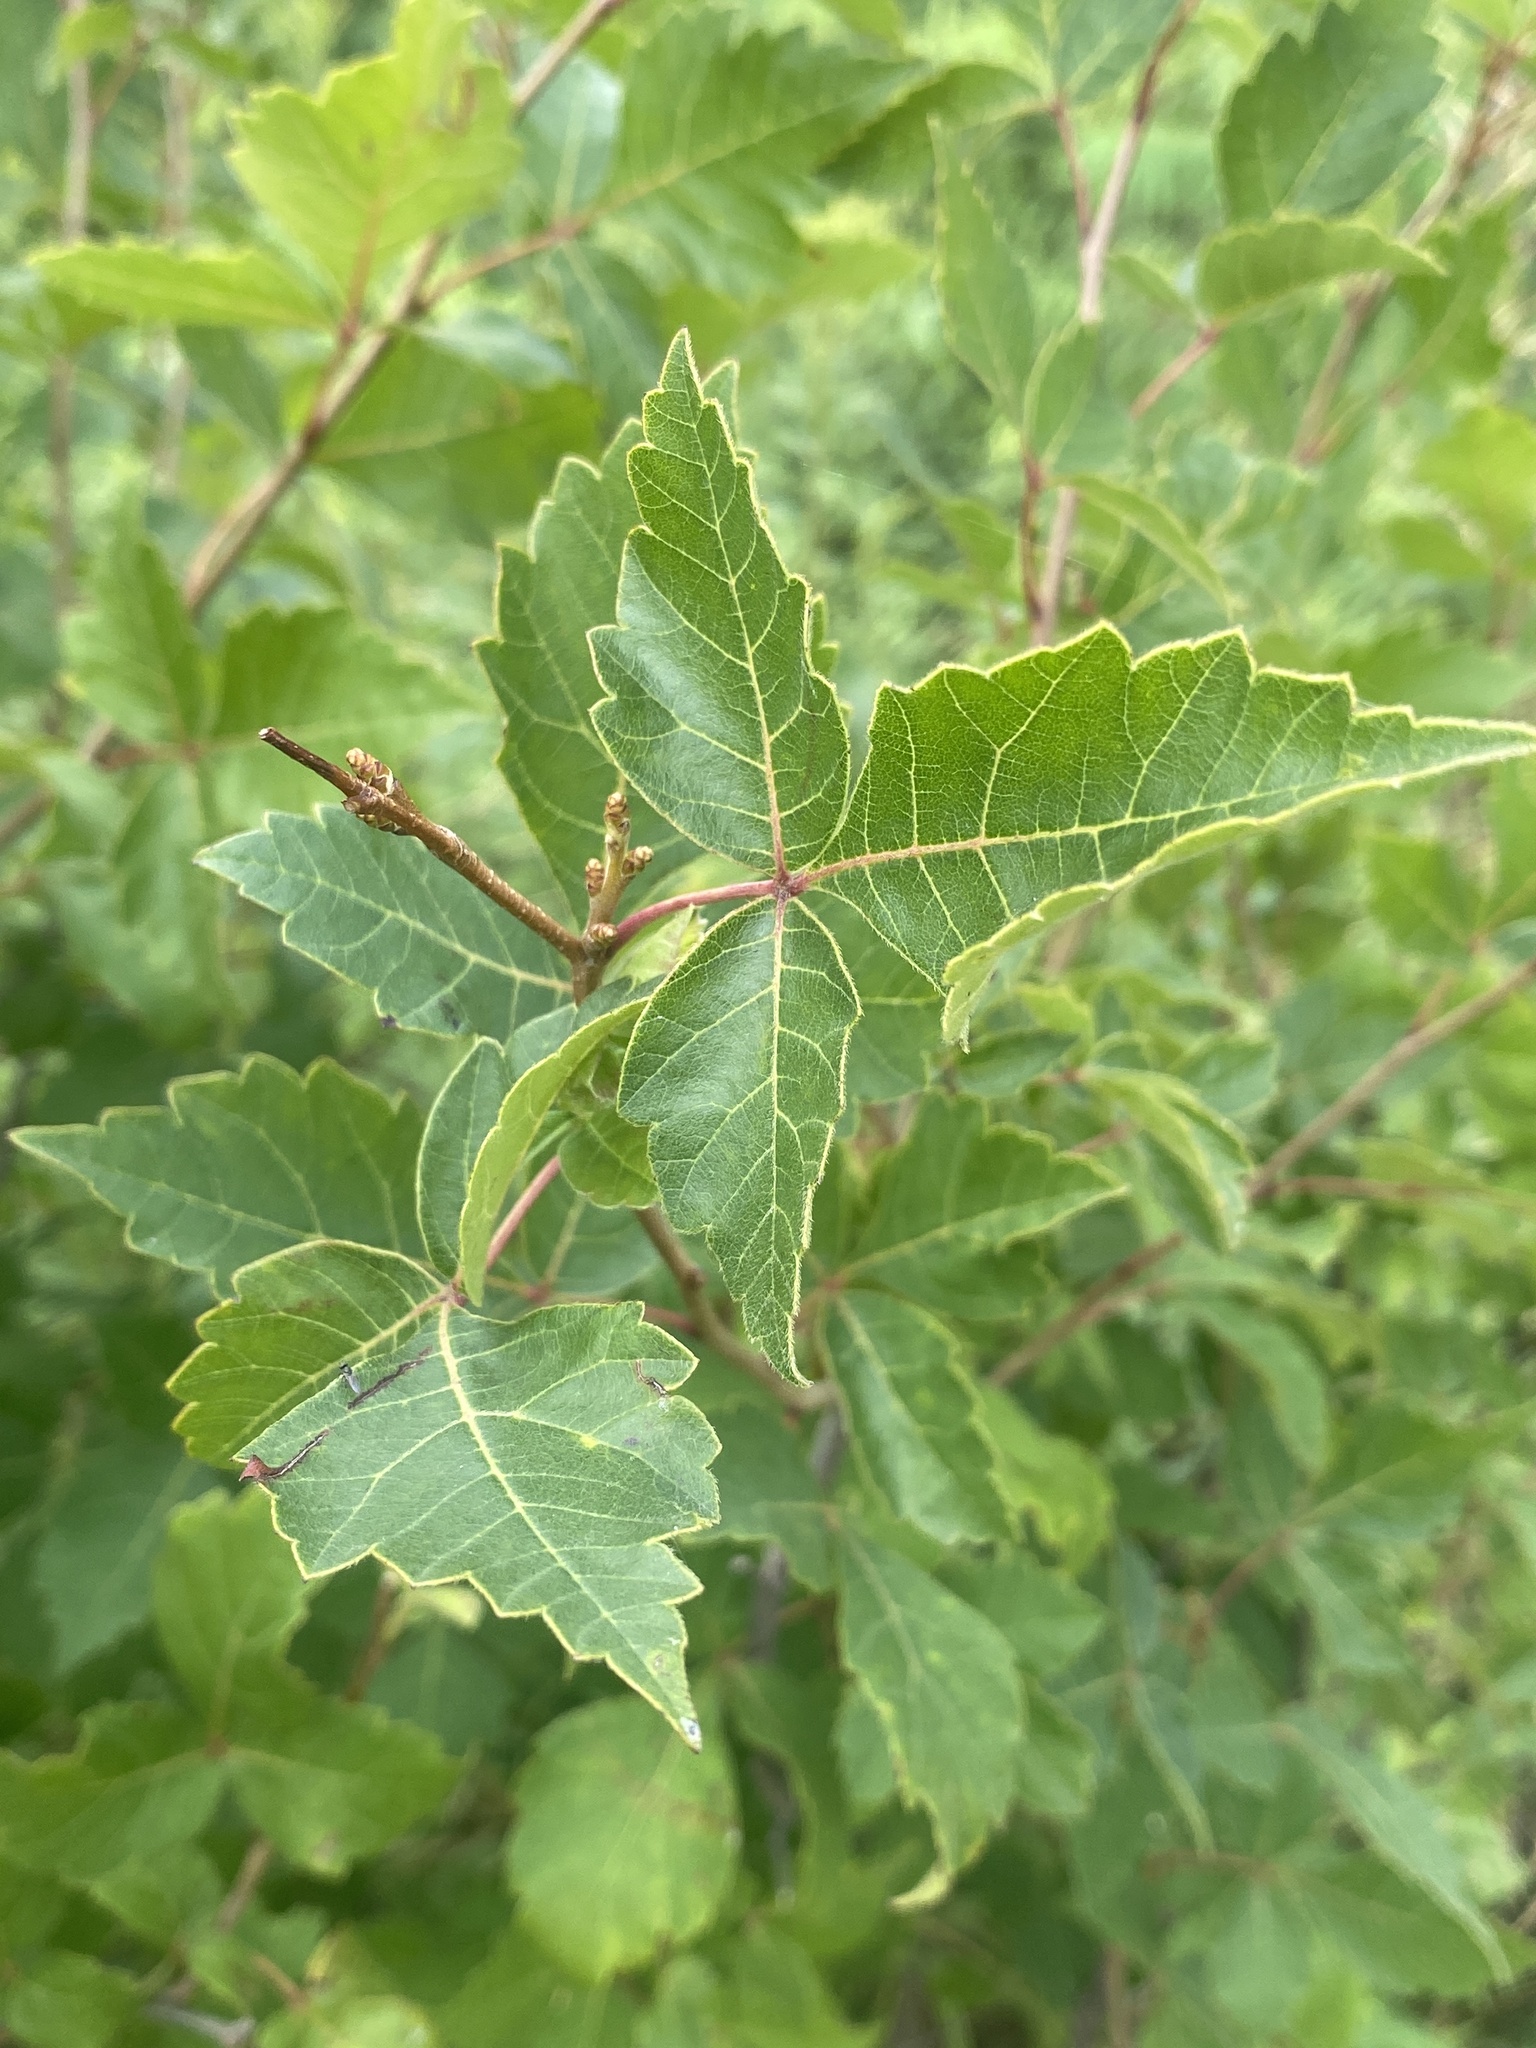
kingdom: Plantae
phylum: Tracheophyta
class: Magnoliopsida
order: Sapindales
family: Anacardiaceae
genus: Rhus
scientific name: Rhus aromatica
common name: Aromatic sumac
